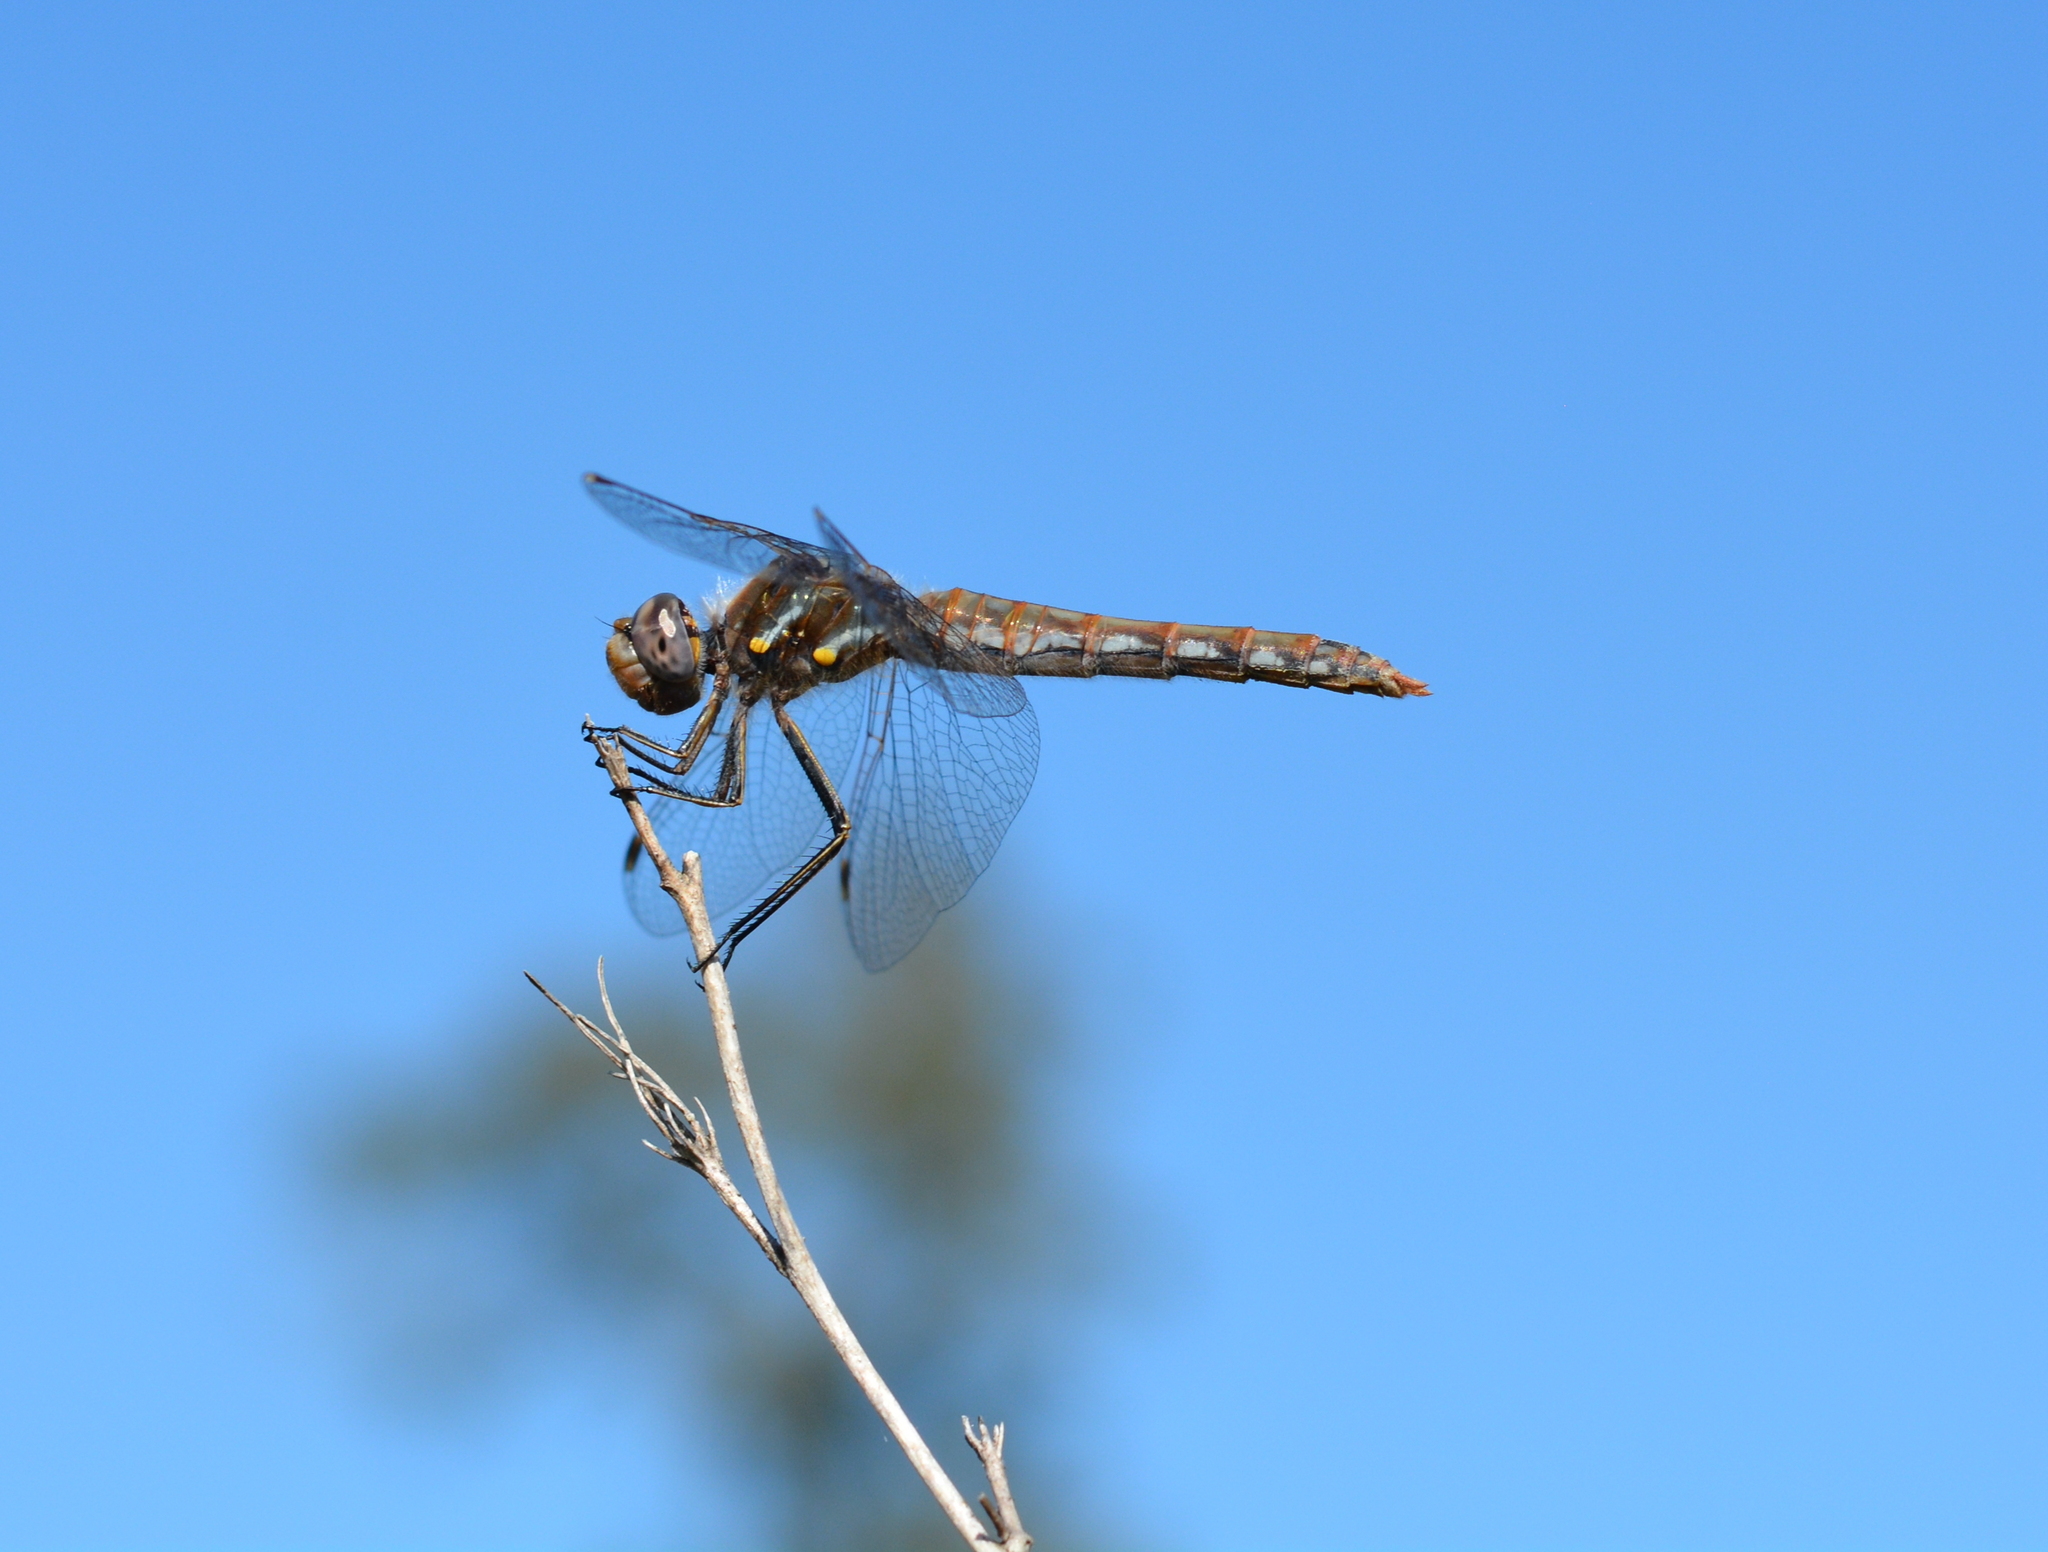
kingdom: Animalia
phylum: Arthropoda
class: Insecta
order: Odonata
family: Libellulidae
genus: Sympetrum
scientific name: Sympetrum corruptum
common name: Variegated meadowhawk
